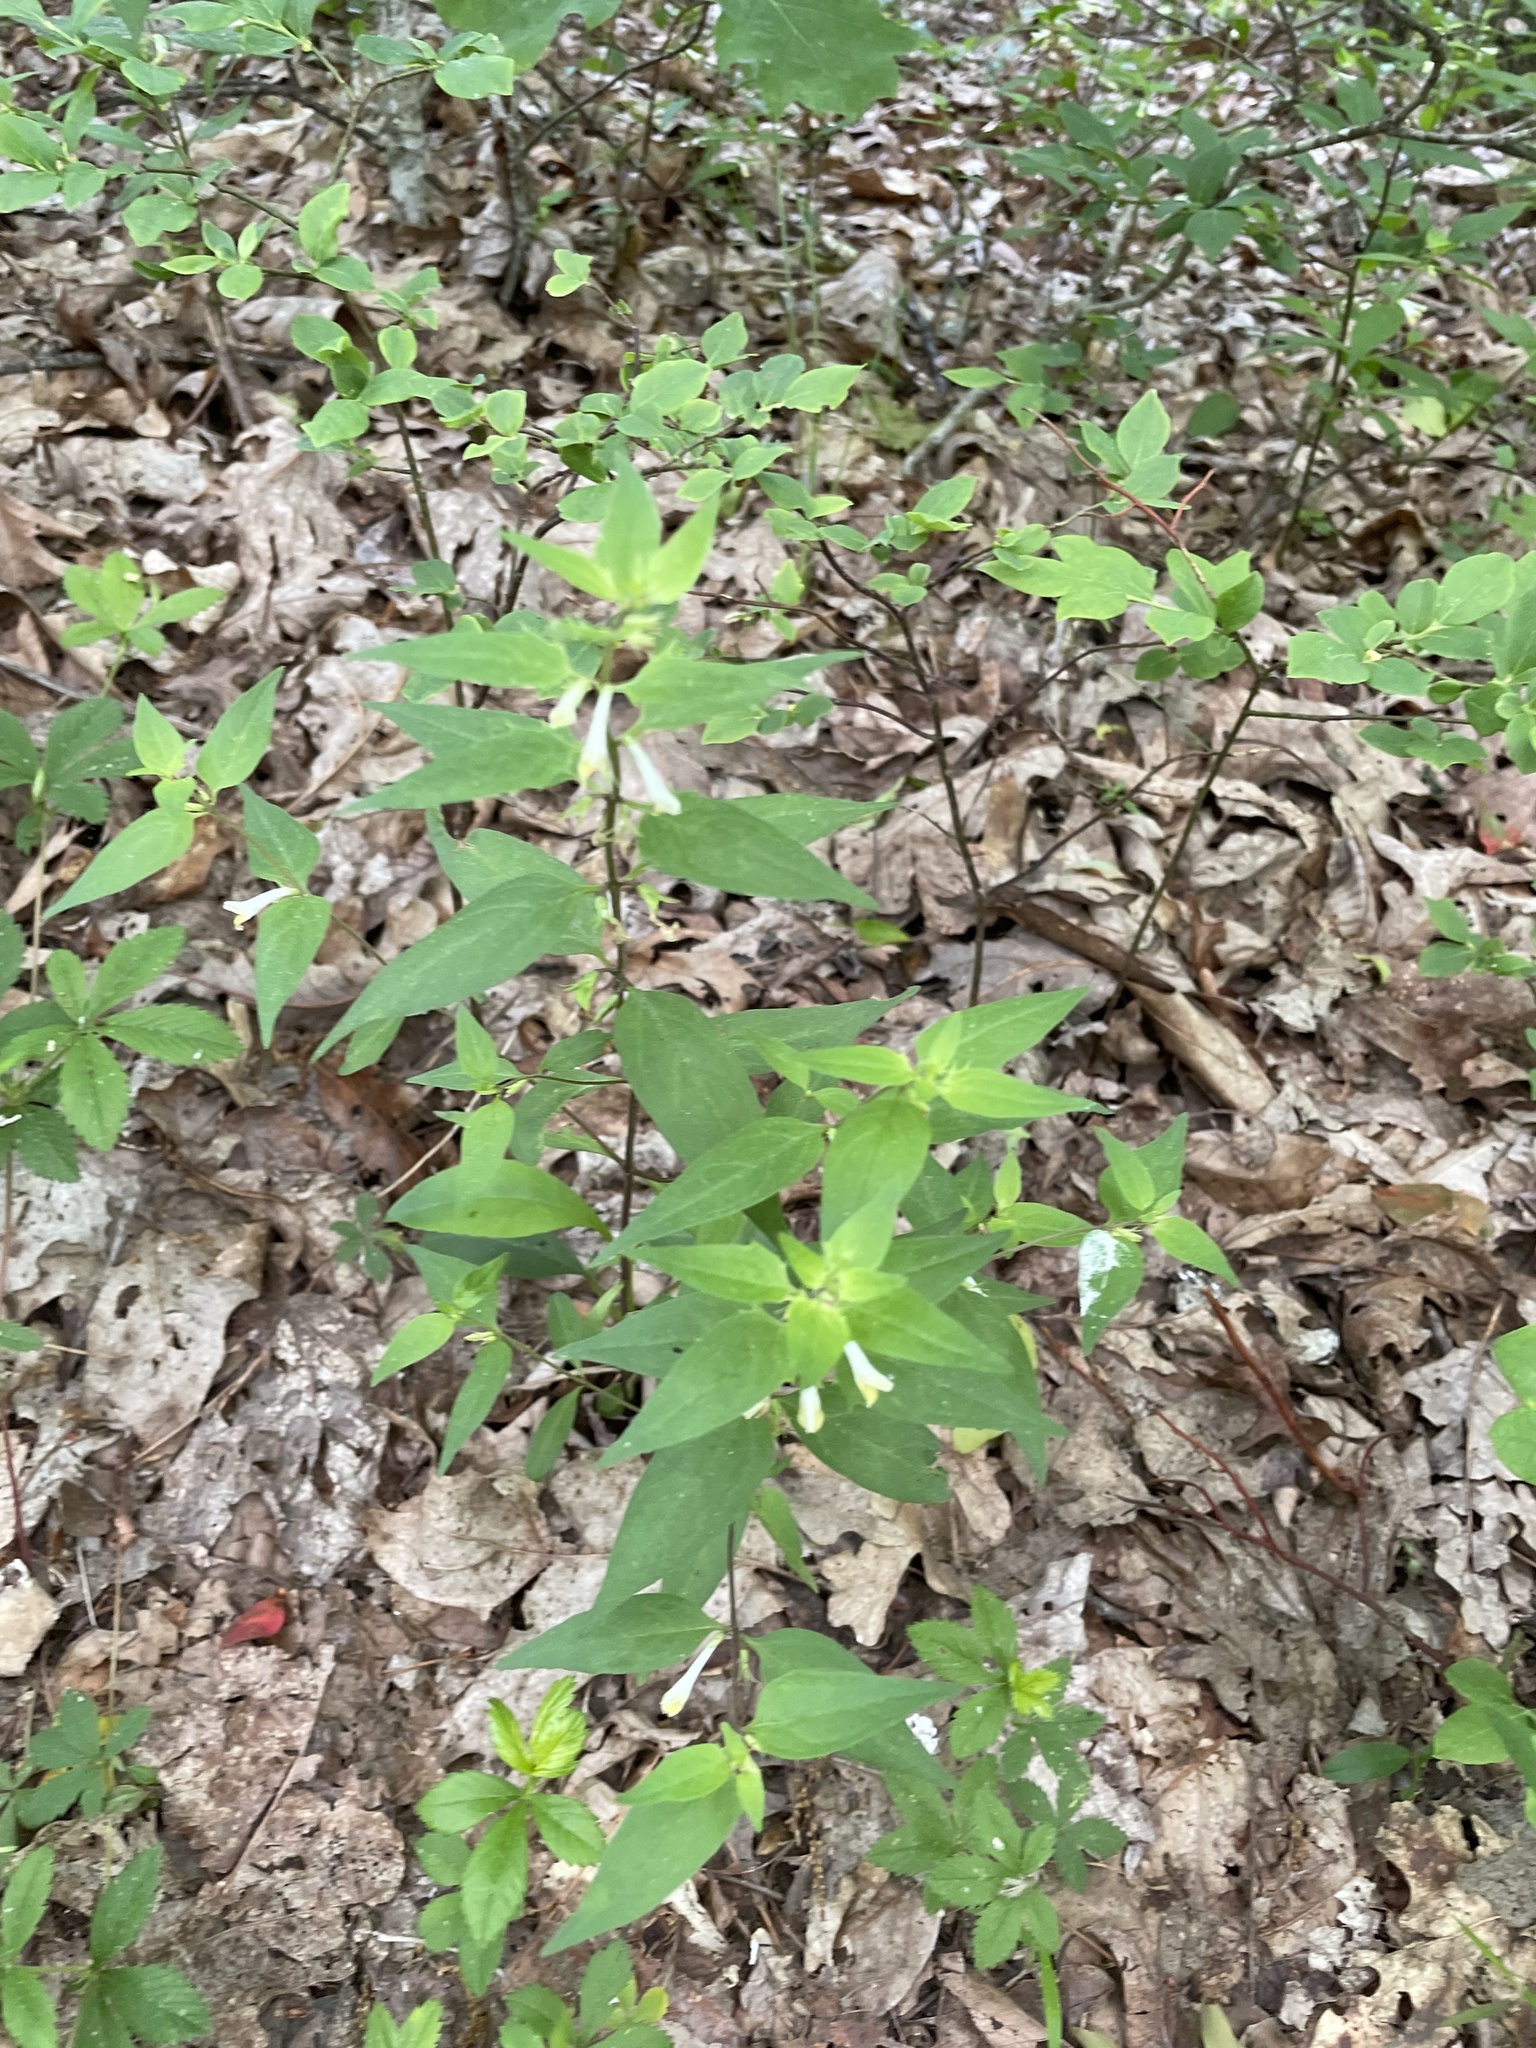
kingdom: Plantae
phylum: Tracheophyta
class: Magnoliopsida
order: Lamiales
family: Orobanchaceae
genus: Melampyrum
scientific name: Melampyrum lineare
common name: American cow-wheat
